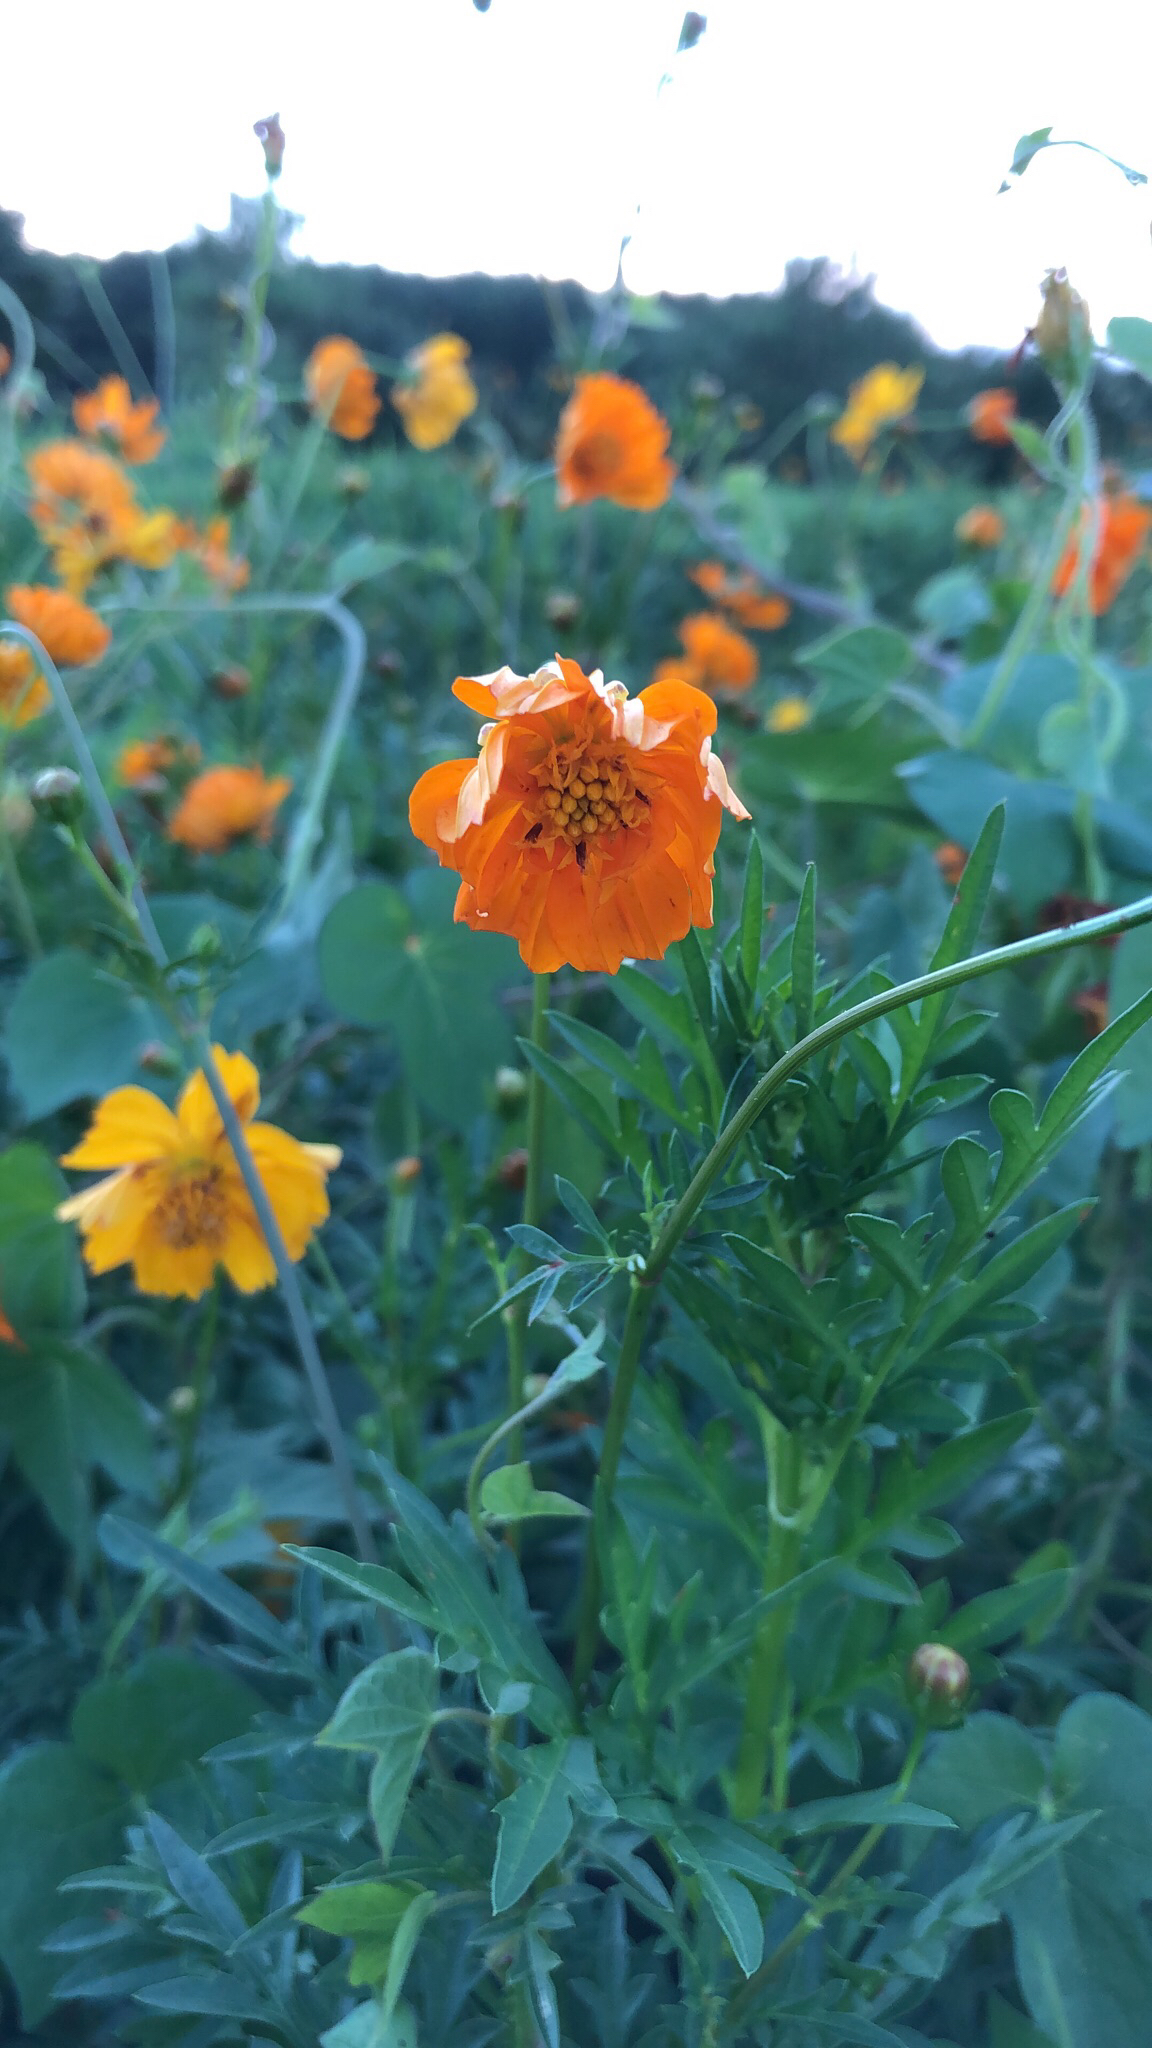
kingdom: Plantae
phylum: Tracheophyta
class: Magnoliopsida
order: Asterales
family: Asteraceae
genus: Cosmos
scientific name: Cosmos sulphureus
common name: Sulphur cosmos
